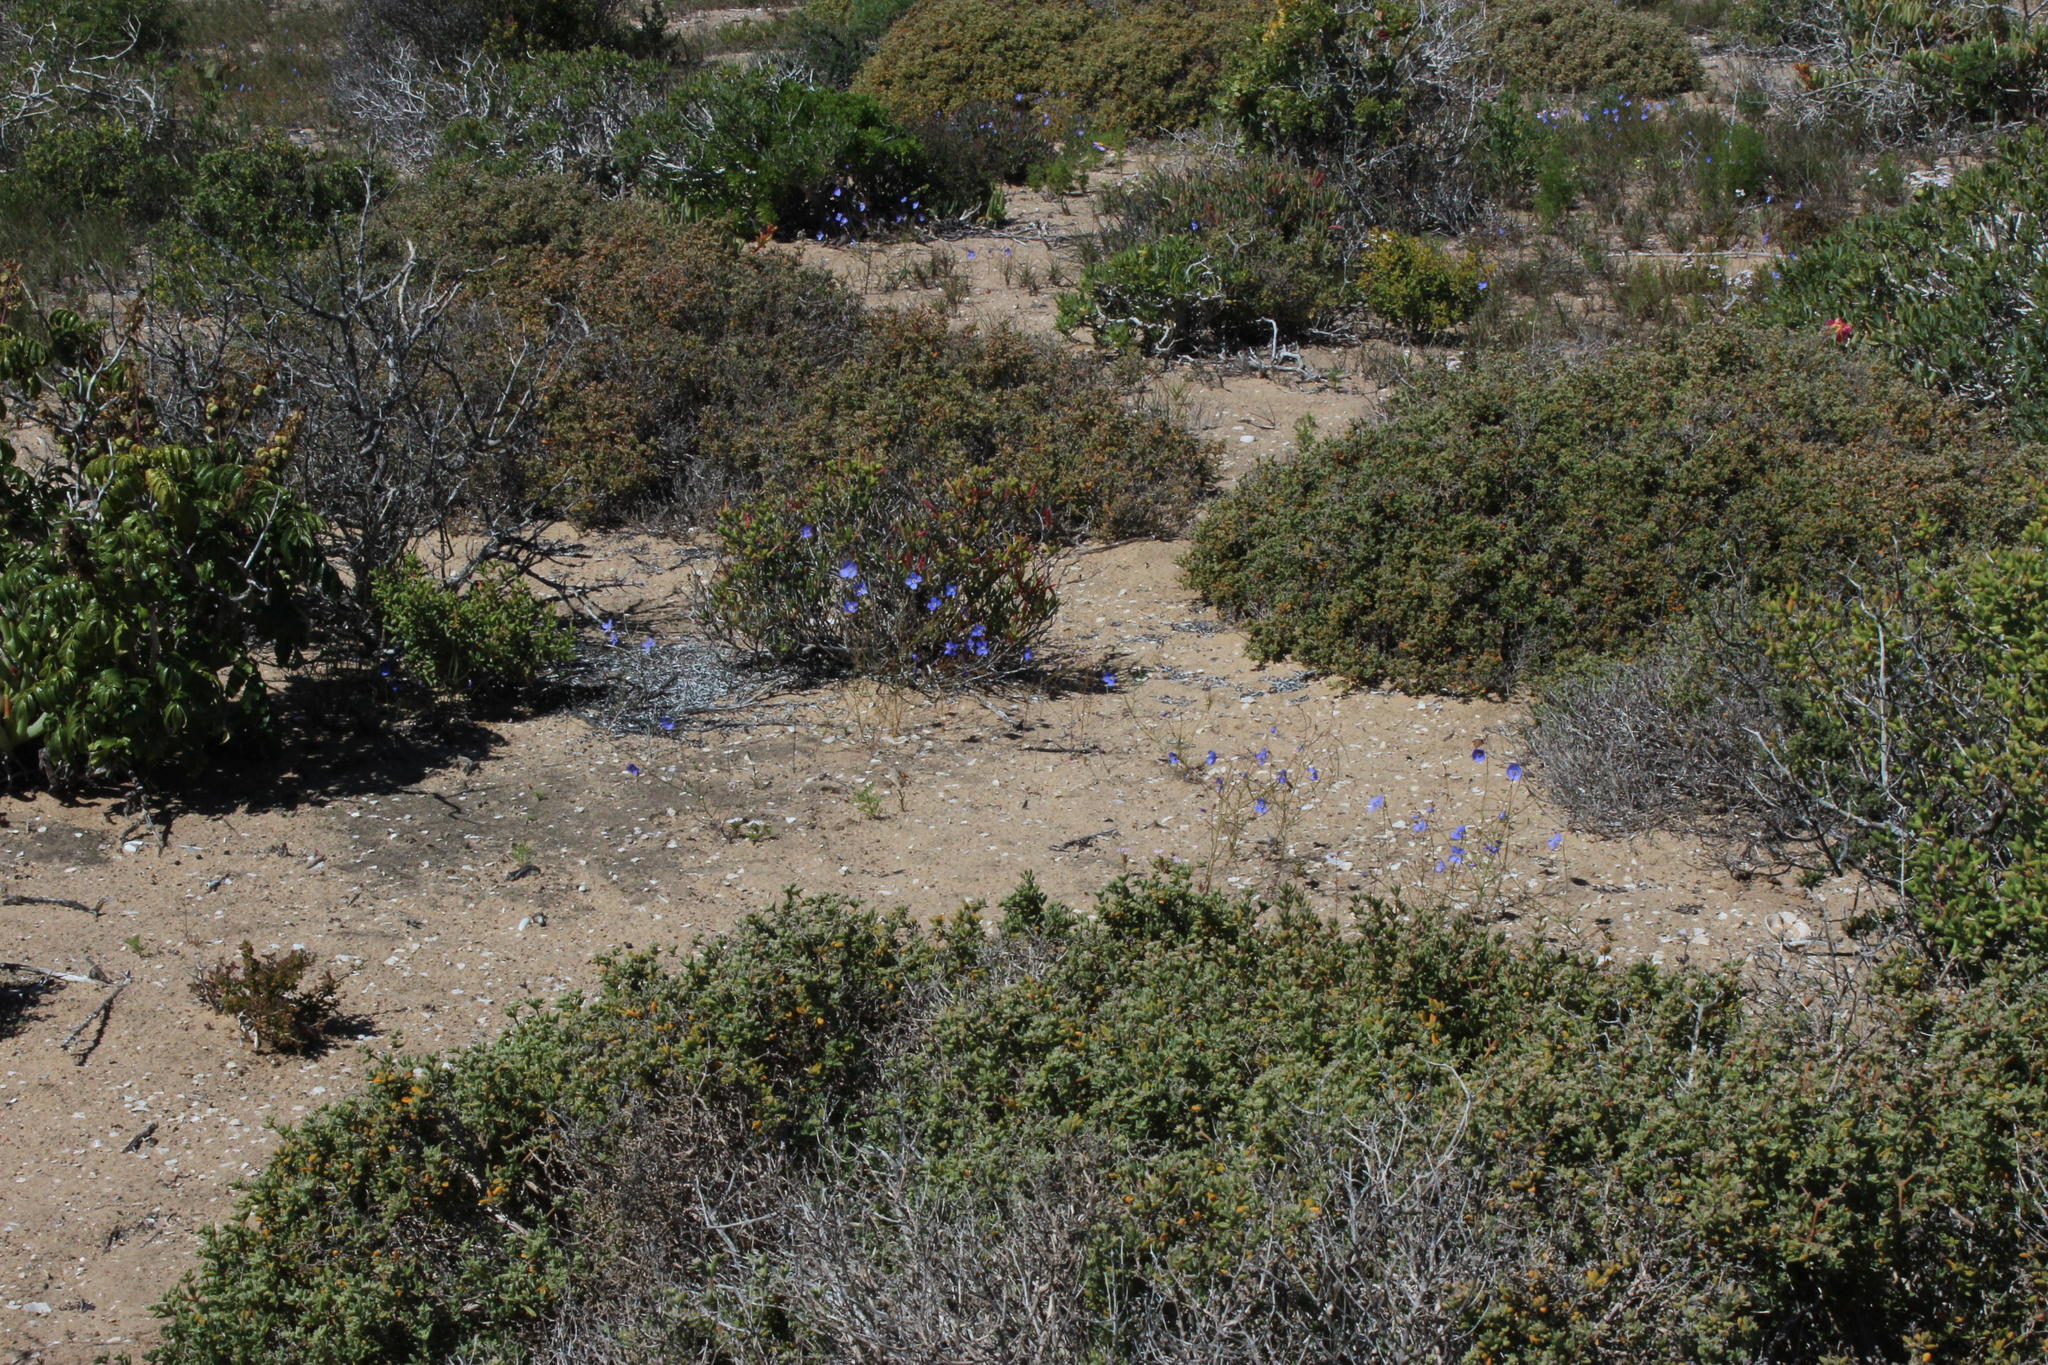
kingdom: Plantae
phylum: Tracheophyta
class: Magnoliopsida
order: Brassicales
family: Brassicaceae
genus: Heliophila
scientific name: Heliophila lactea
